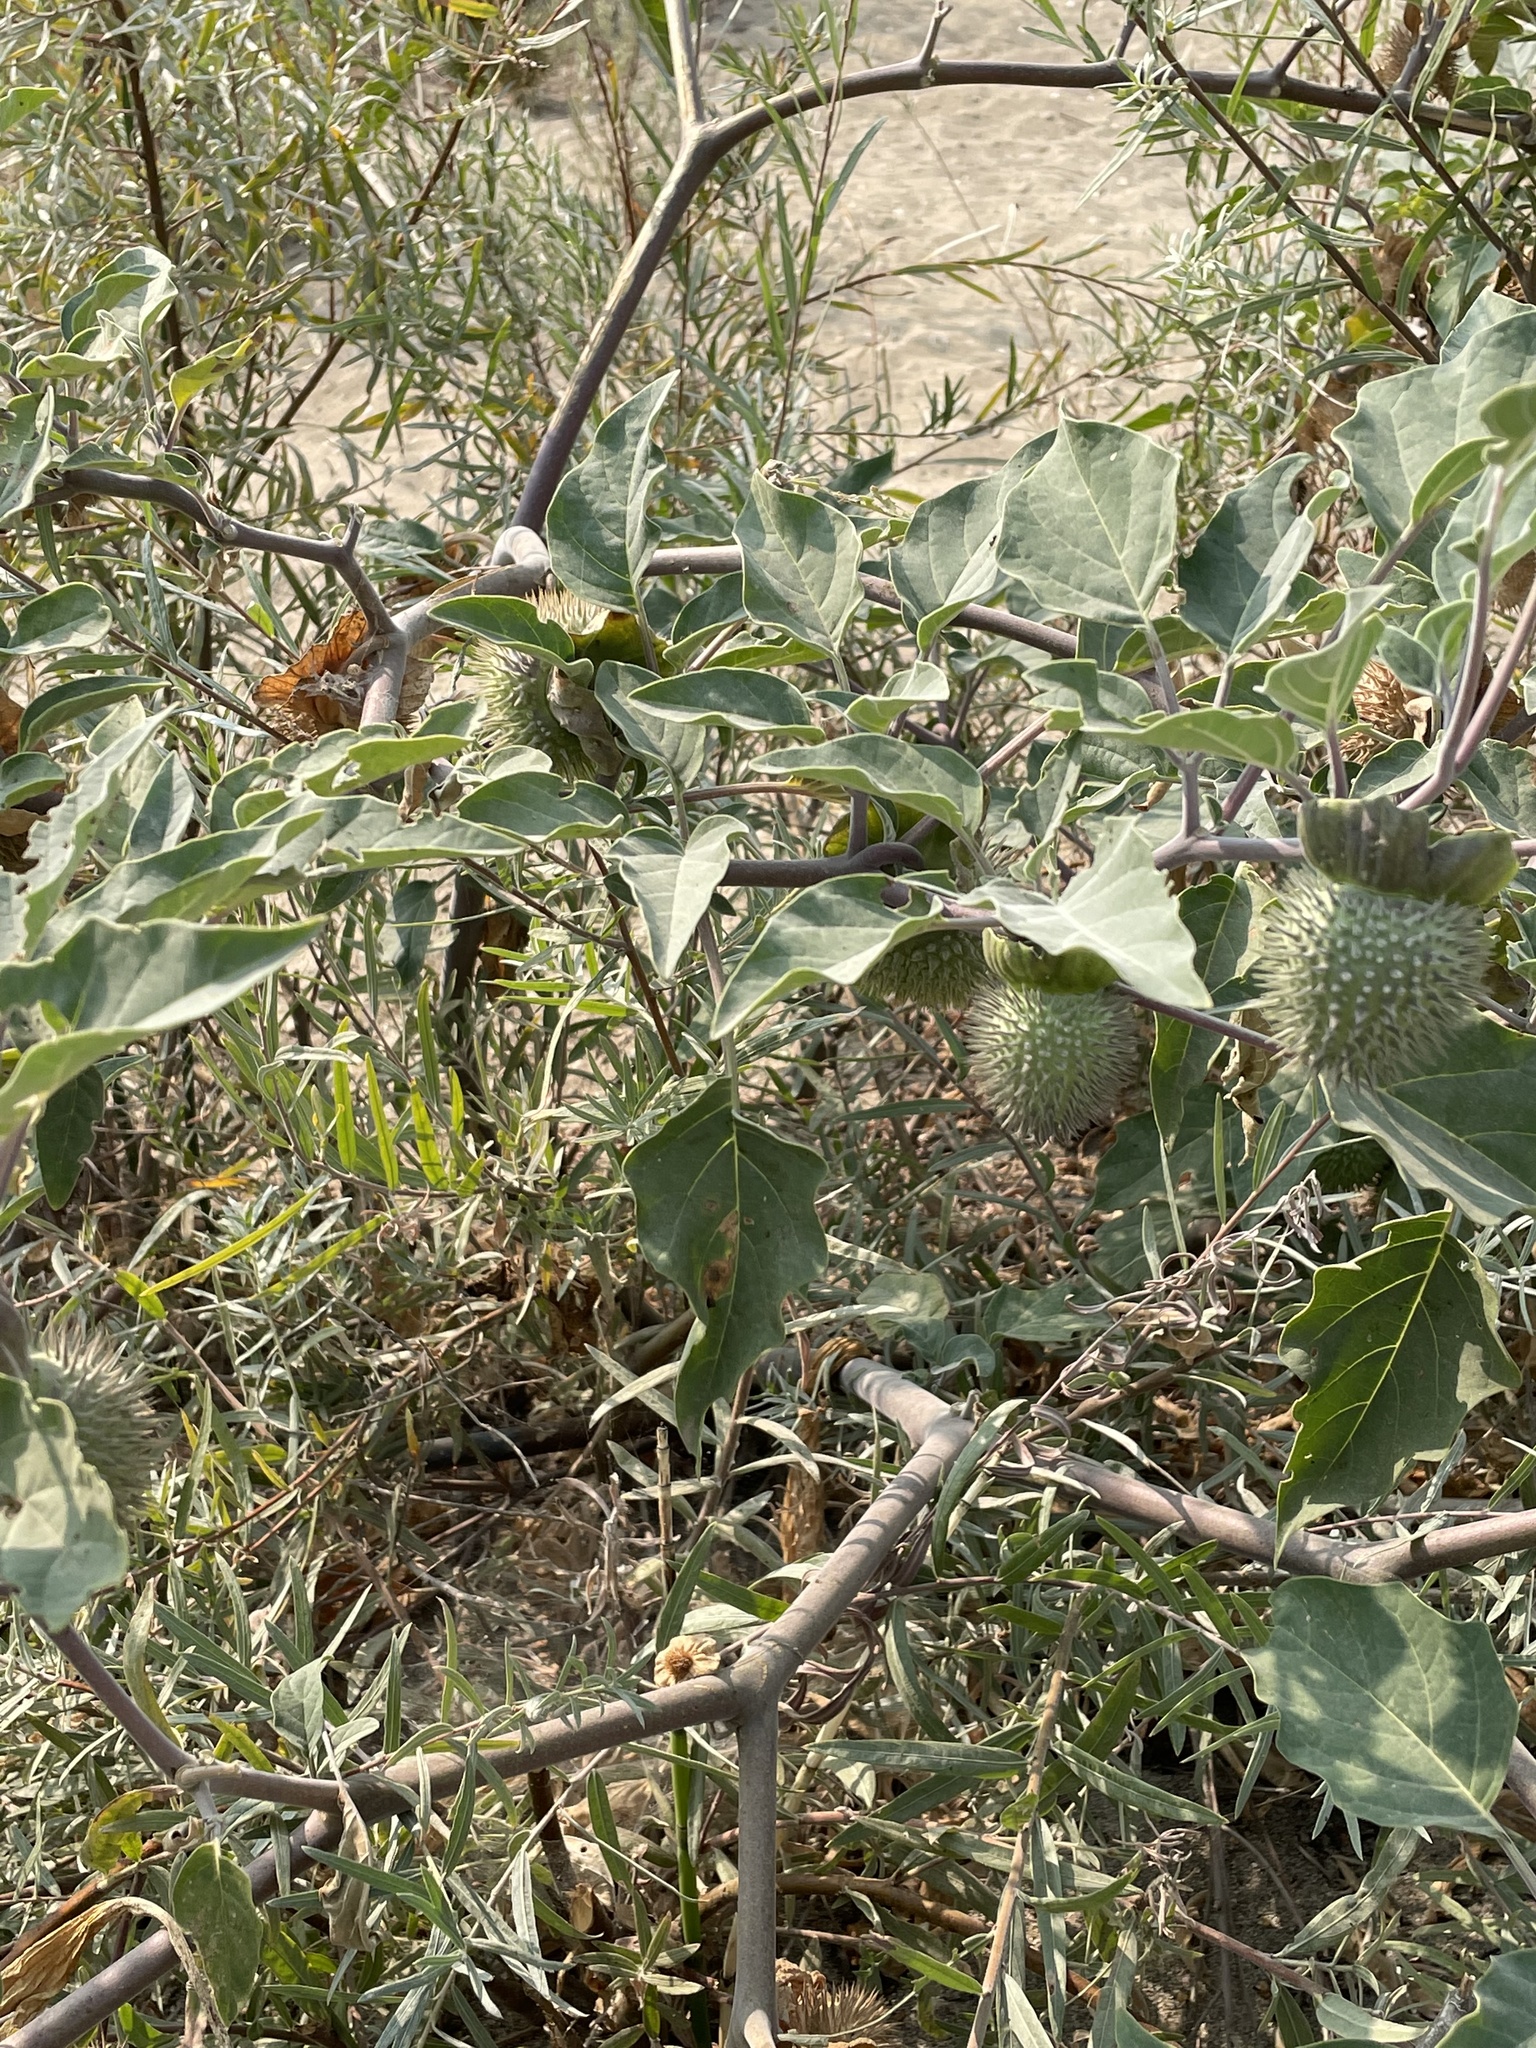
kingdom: Plantae
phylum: Tracheophyta
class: Magnoliopsida
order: Solanales
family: Solanaceae
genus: Datura
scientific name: Datura wrightii
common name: Sacred thorn-apple
